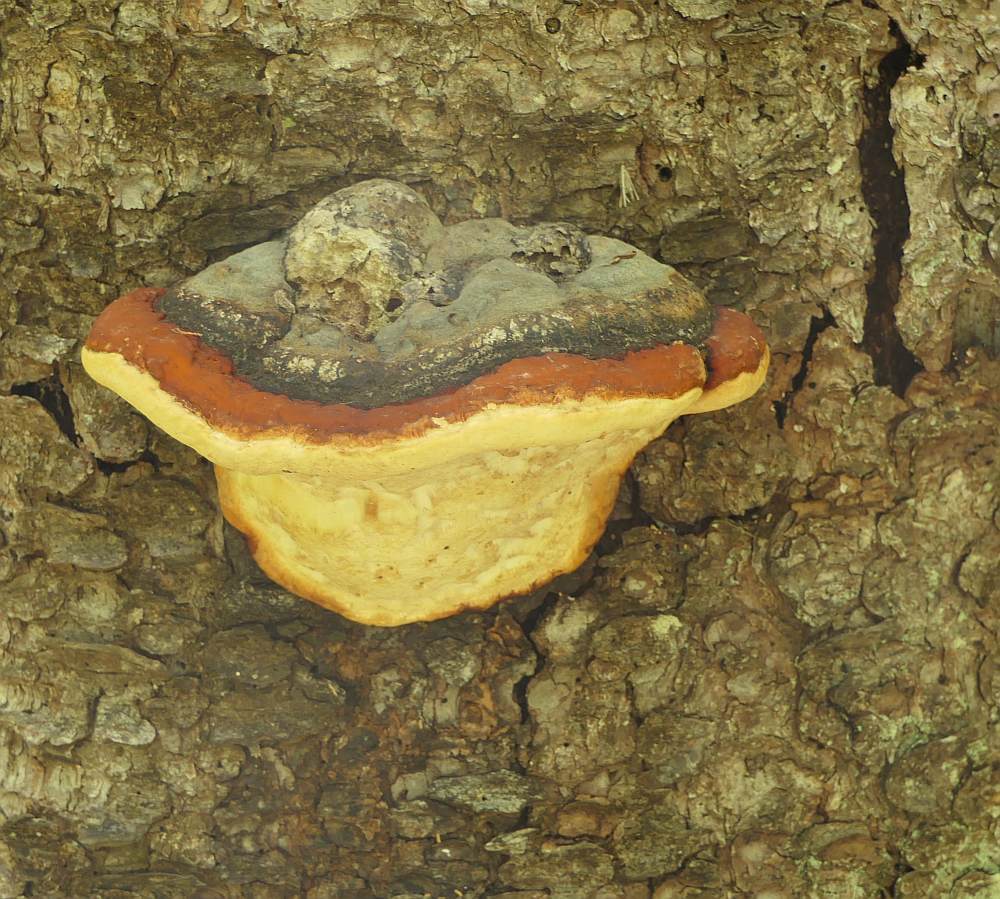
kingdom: Fungi
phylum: Basidiomycota
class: Agaricomycetes
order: Polyporales
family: Fomitopsidaceae
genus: Fomitopsis
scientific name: Fomitopsis mounceae
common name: Northern red belt
